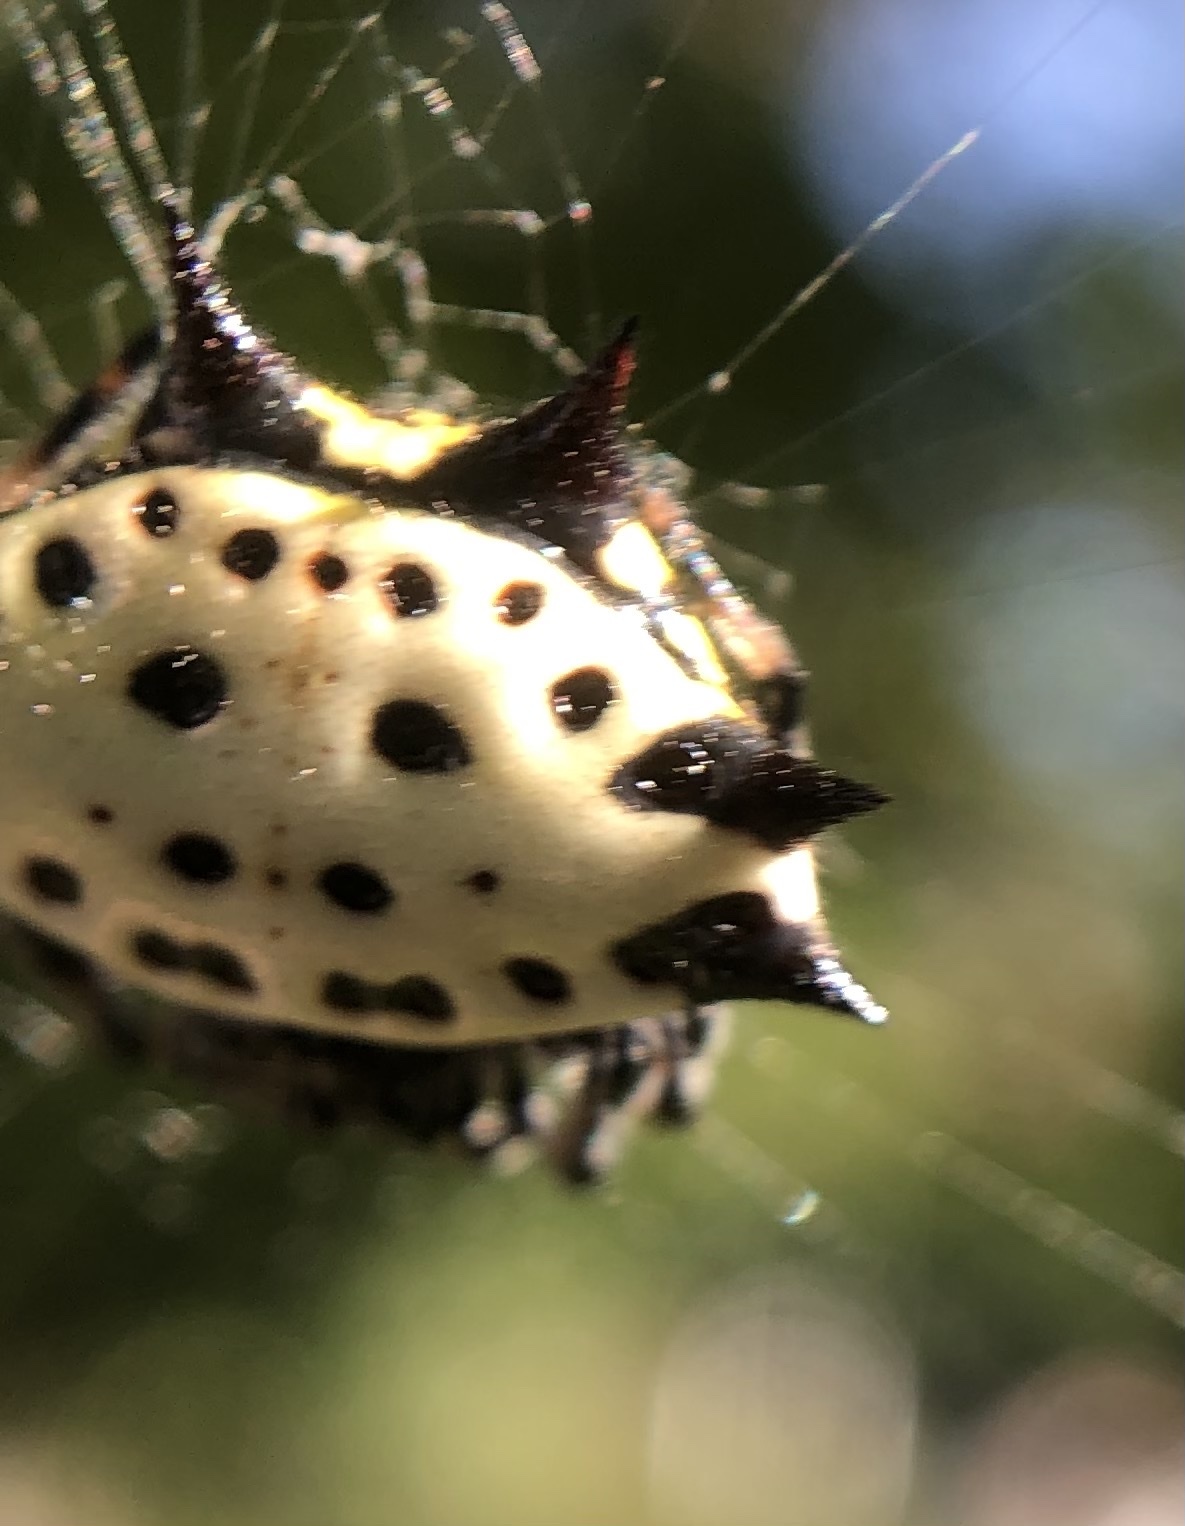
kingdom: Animalia
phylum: Arthropoda
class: Arachnida
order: Araneae
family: Araneidae
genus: Gasteracantha
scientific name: Gasteracantha cancriformis
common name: Orb weavers
